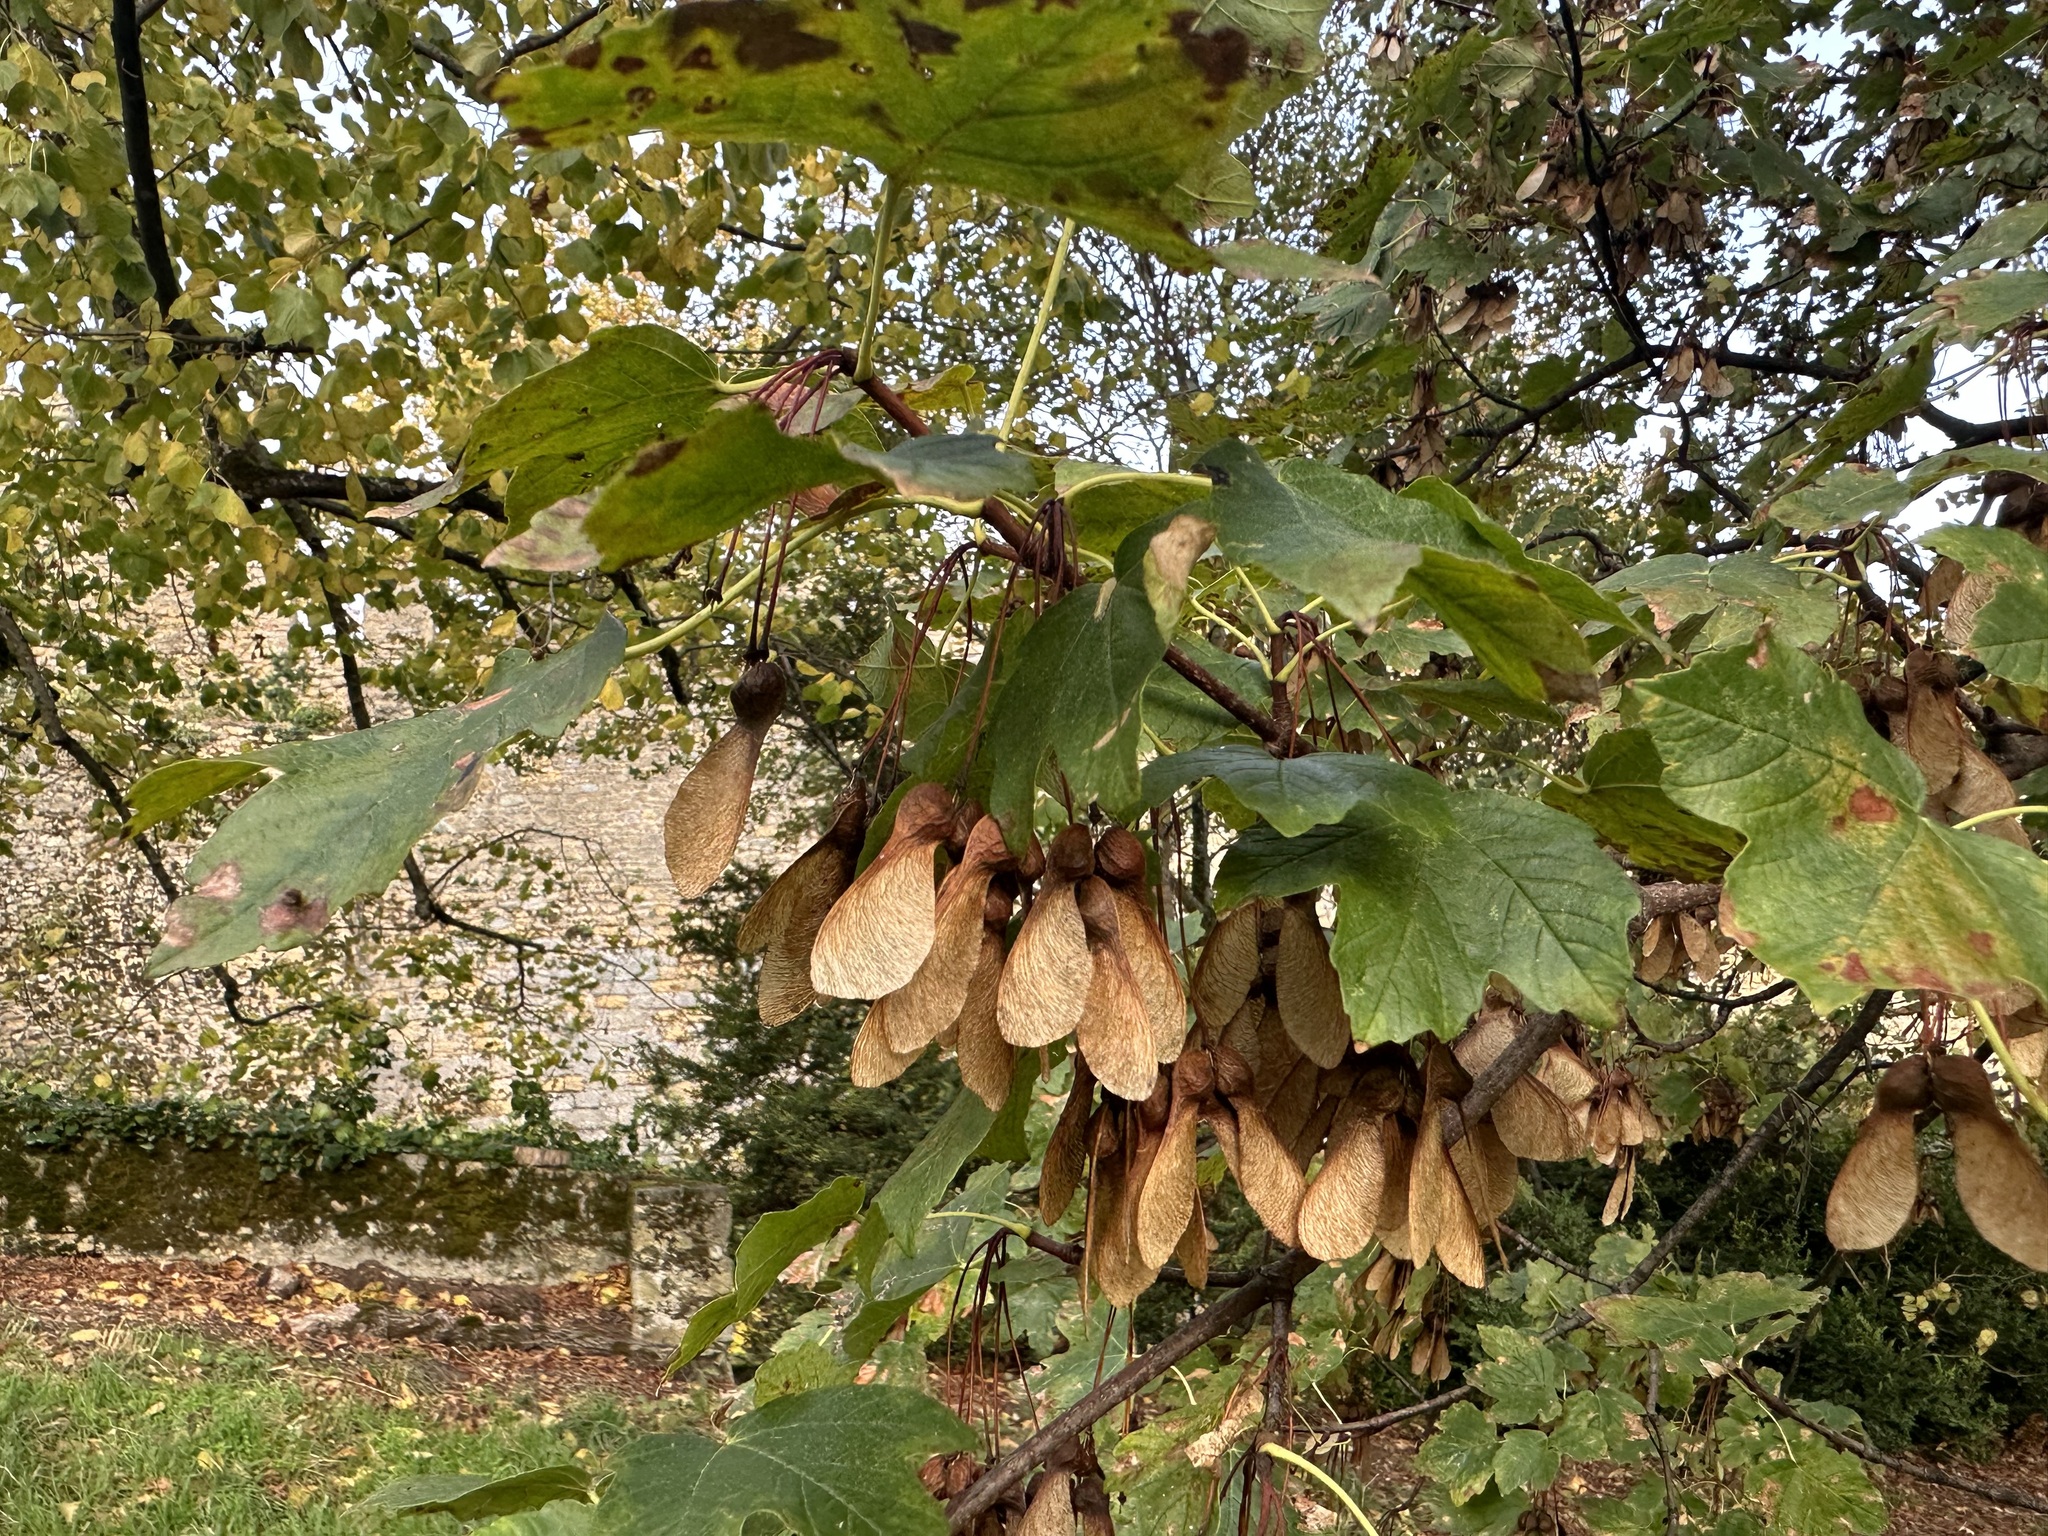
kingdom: Plantae
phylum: Tracheophyta
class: Magnoliopsida
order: Sapindales
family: Sapindaceae
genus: Acer
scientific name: Acer opalus
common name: Italian maple
